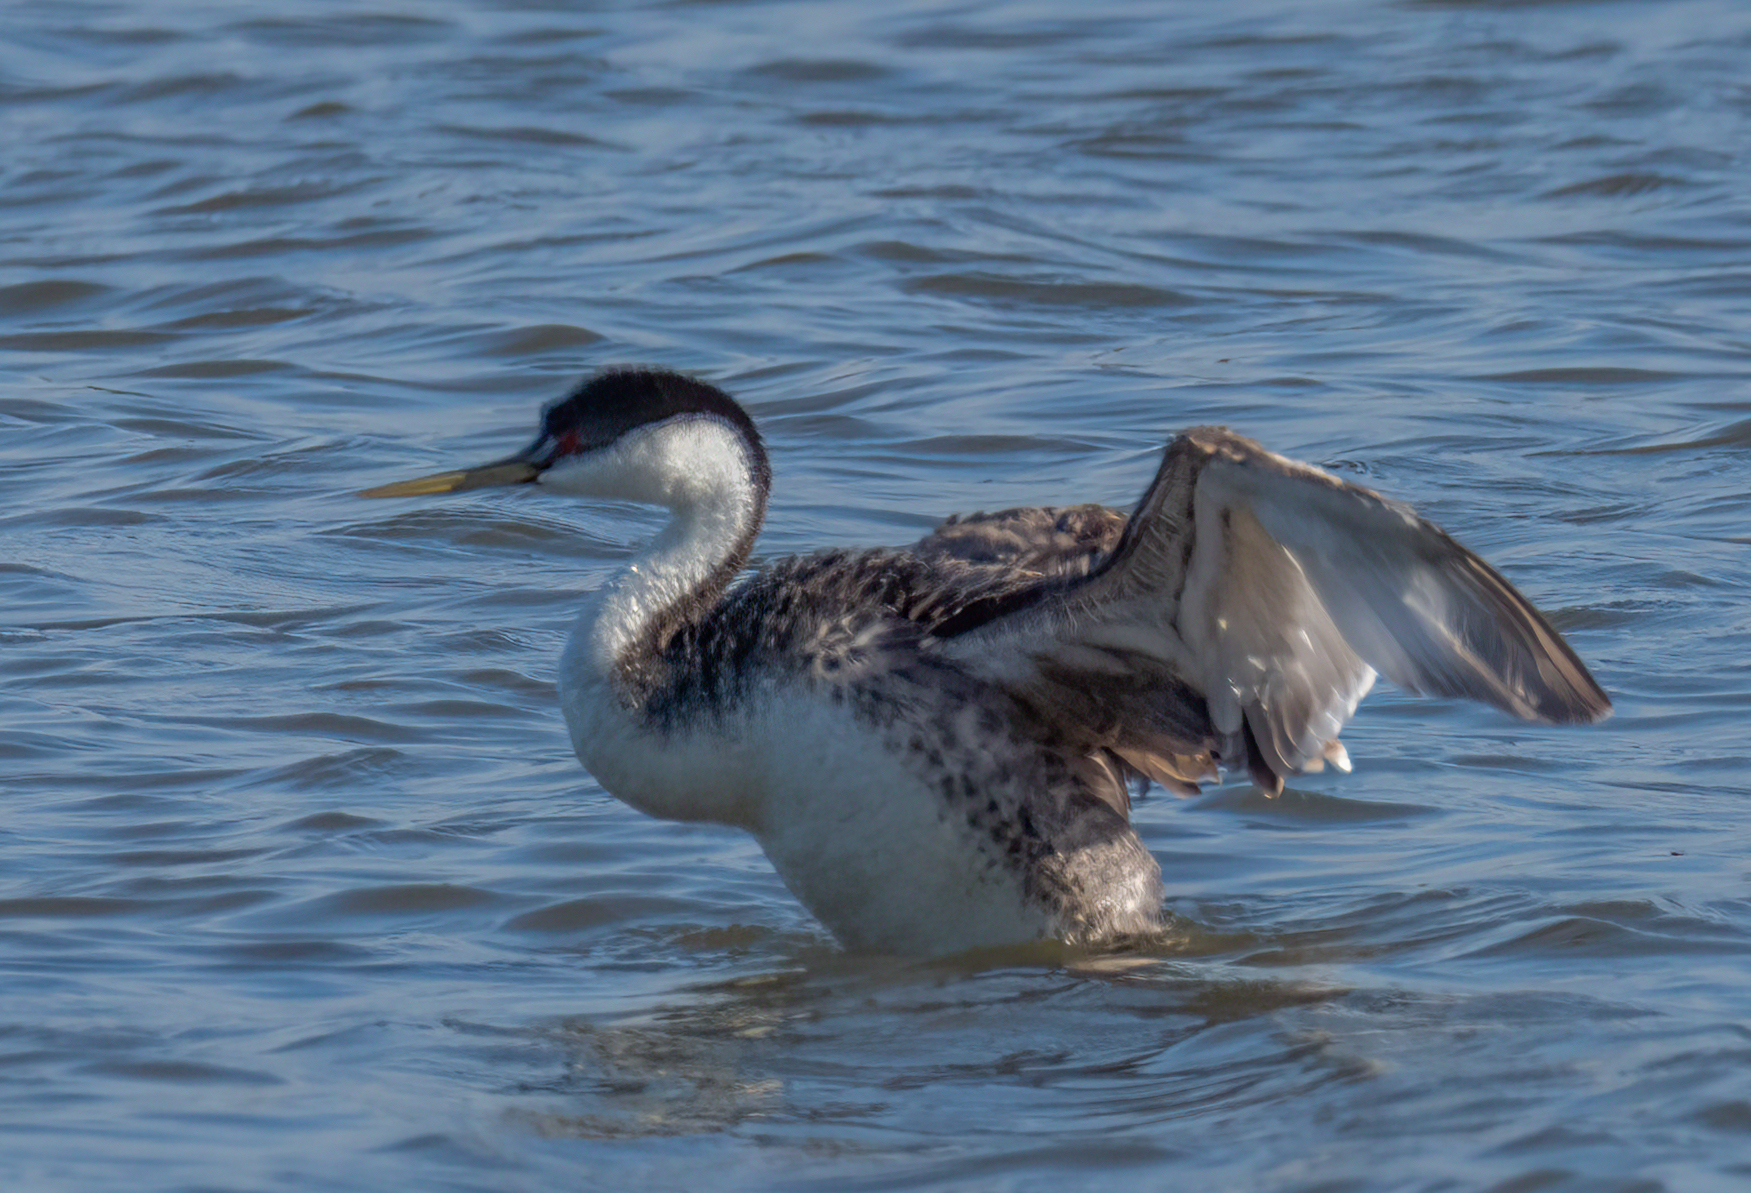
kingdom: Animalia
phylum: Chordata
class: Aves
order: Podicipediformes
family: Podicipedidae
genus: Aechmophorus
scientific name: Aechmophorus occidentalis
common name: Western grebe
